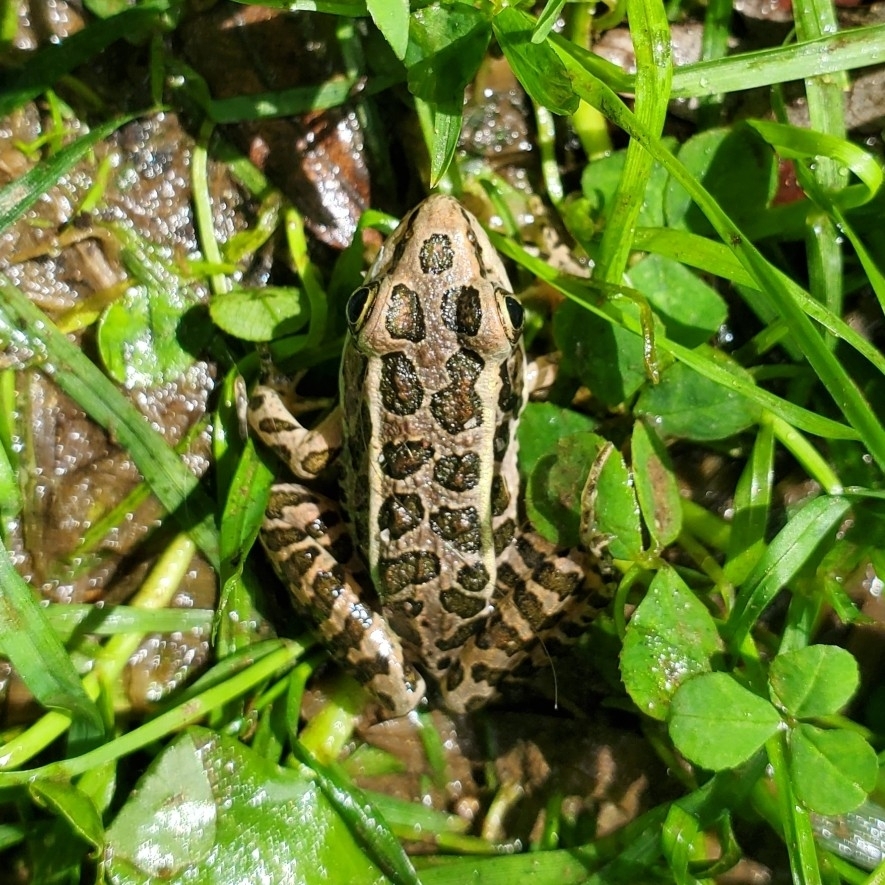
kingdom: Animalia
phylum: Chordata
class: Amphibia
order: Anura
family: Ranidae
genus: Lithobates
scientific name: Lithobates palustris
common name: Pickerel frog
